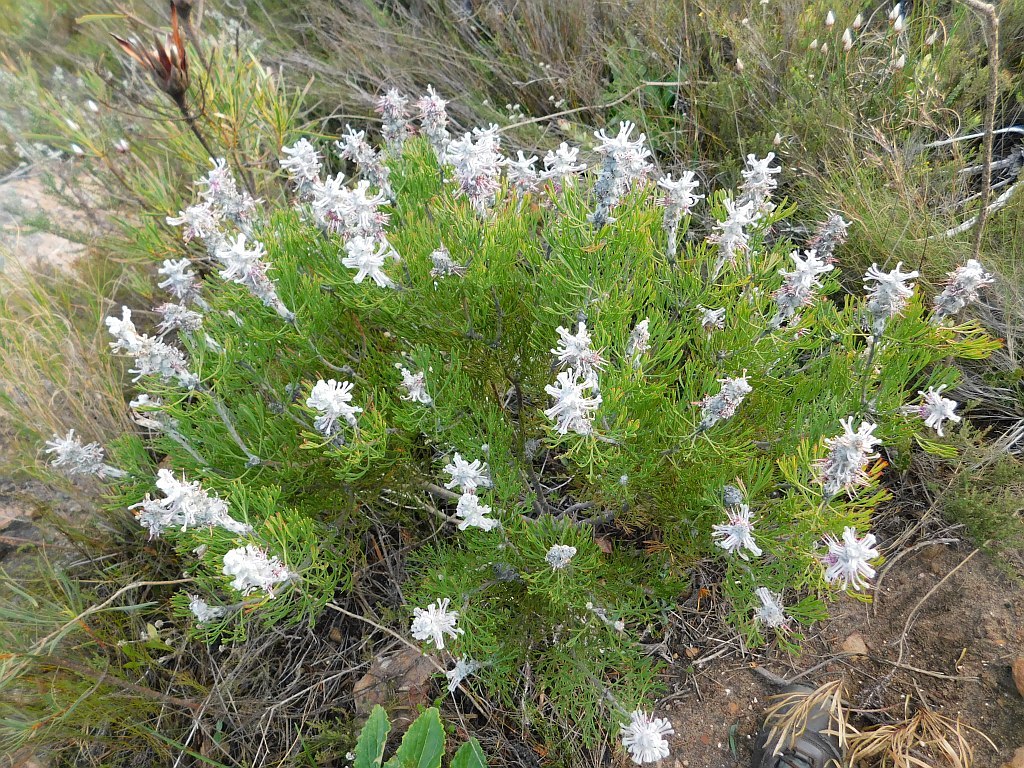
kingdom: Plantae
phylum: Tracheophyta
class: Magnoliopsida
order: Proteales
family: Proteaceae
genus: Paranomus
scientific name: Paranomus dispersus
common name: Long-head sceptre
